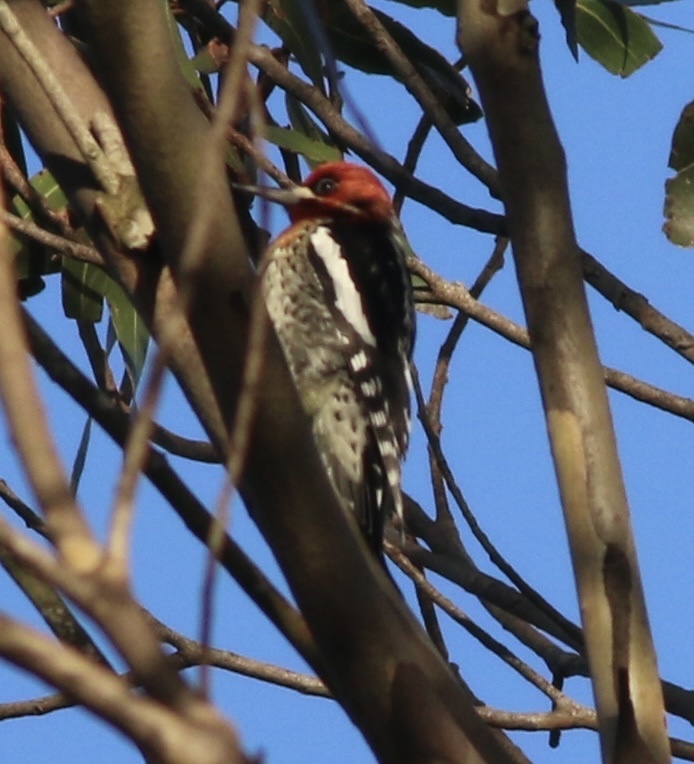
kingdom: Animalia
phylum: Chordata
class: Aves
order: Piciformes
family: Picidae
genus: Sphyrapicus
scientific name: Sphyrapicus ruber
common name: Red-breasted sapsucker
